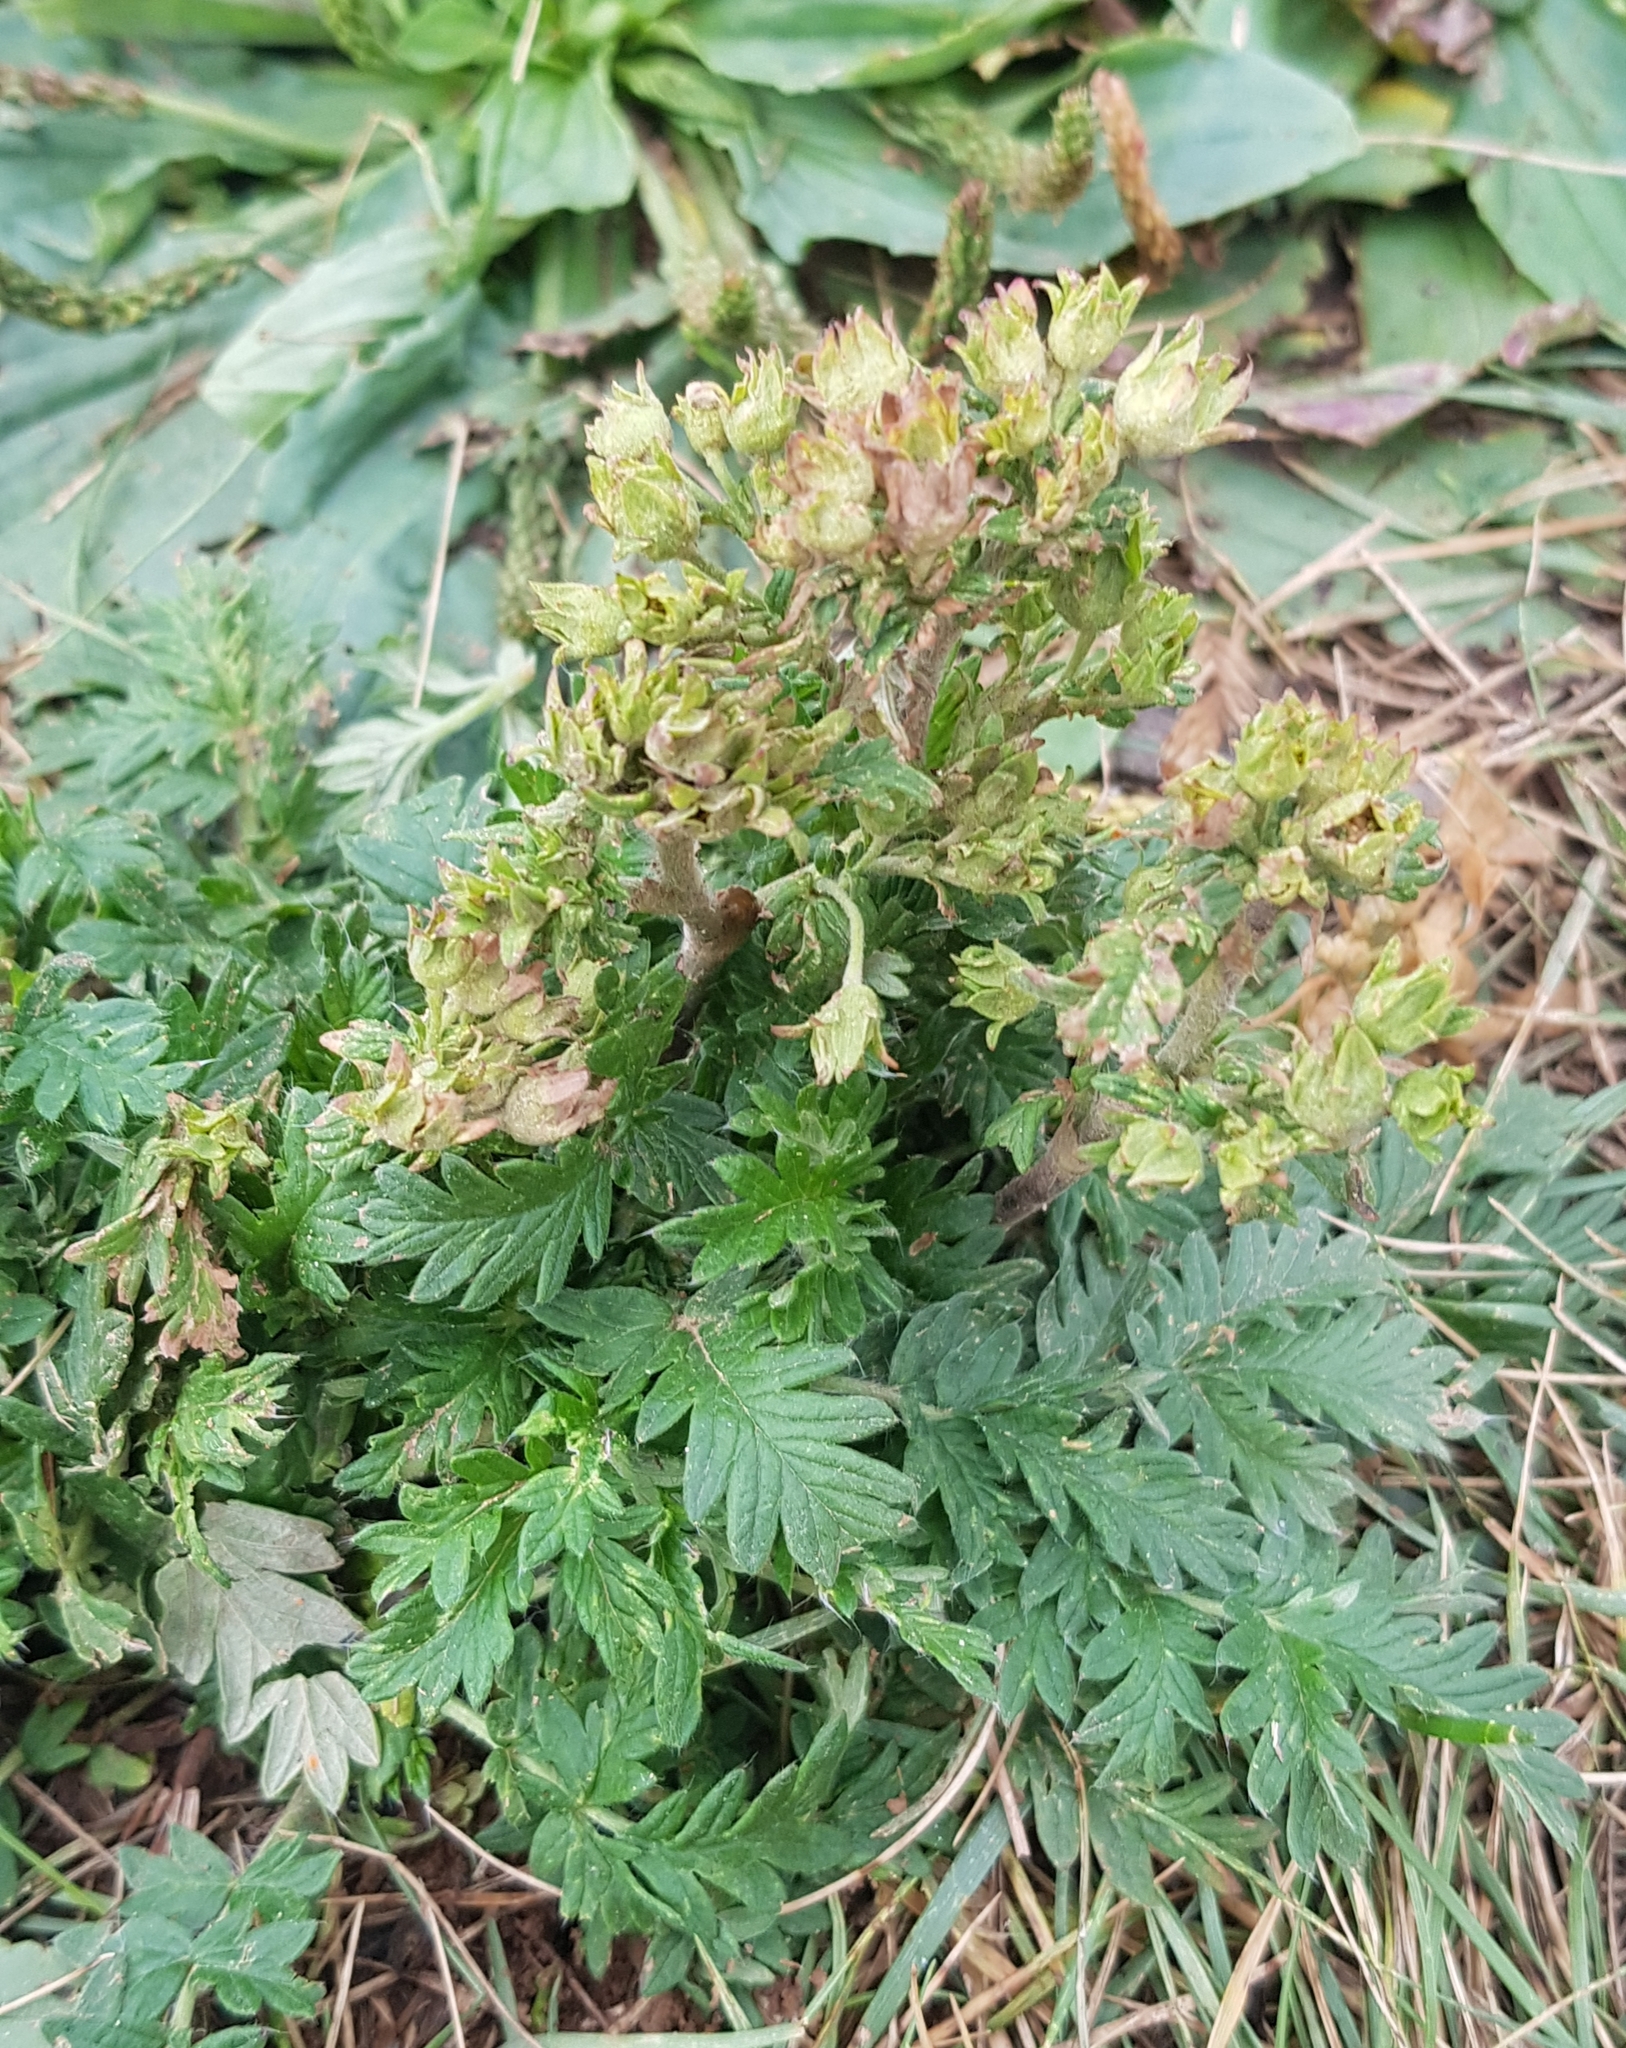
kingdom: Plantae
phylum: Tracheophyta
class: Magnoliopsida
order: Rosales
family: Rosaceae
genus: Potentilla
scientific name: Potentilla tanacetifolia
